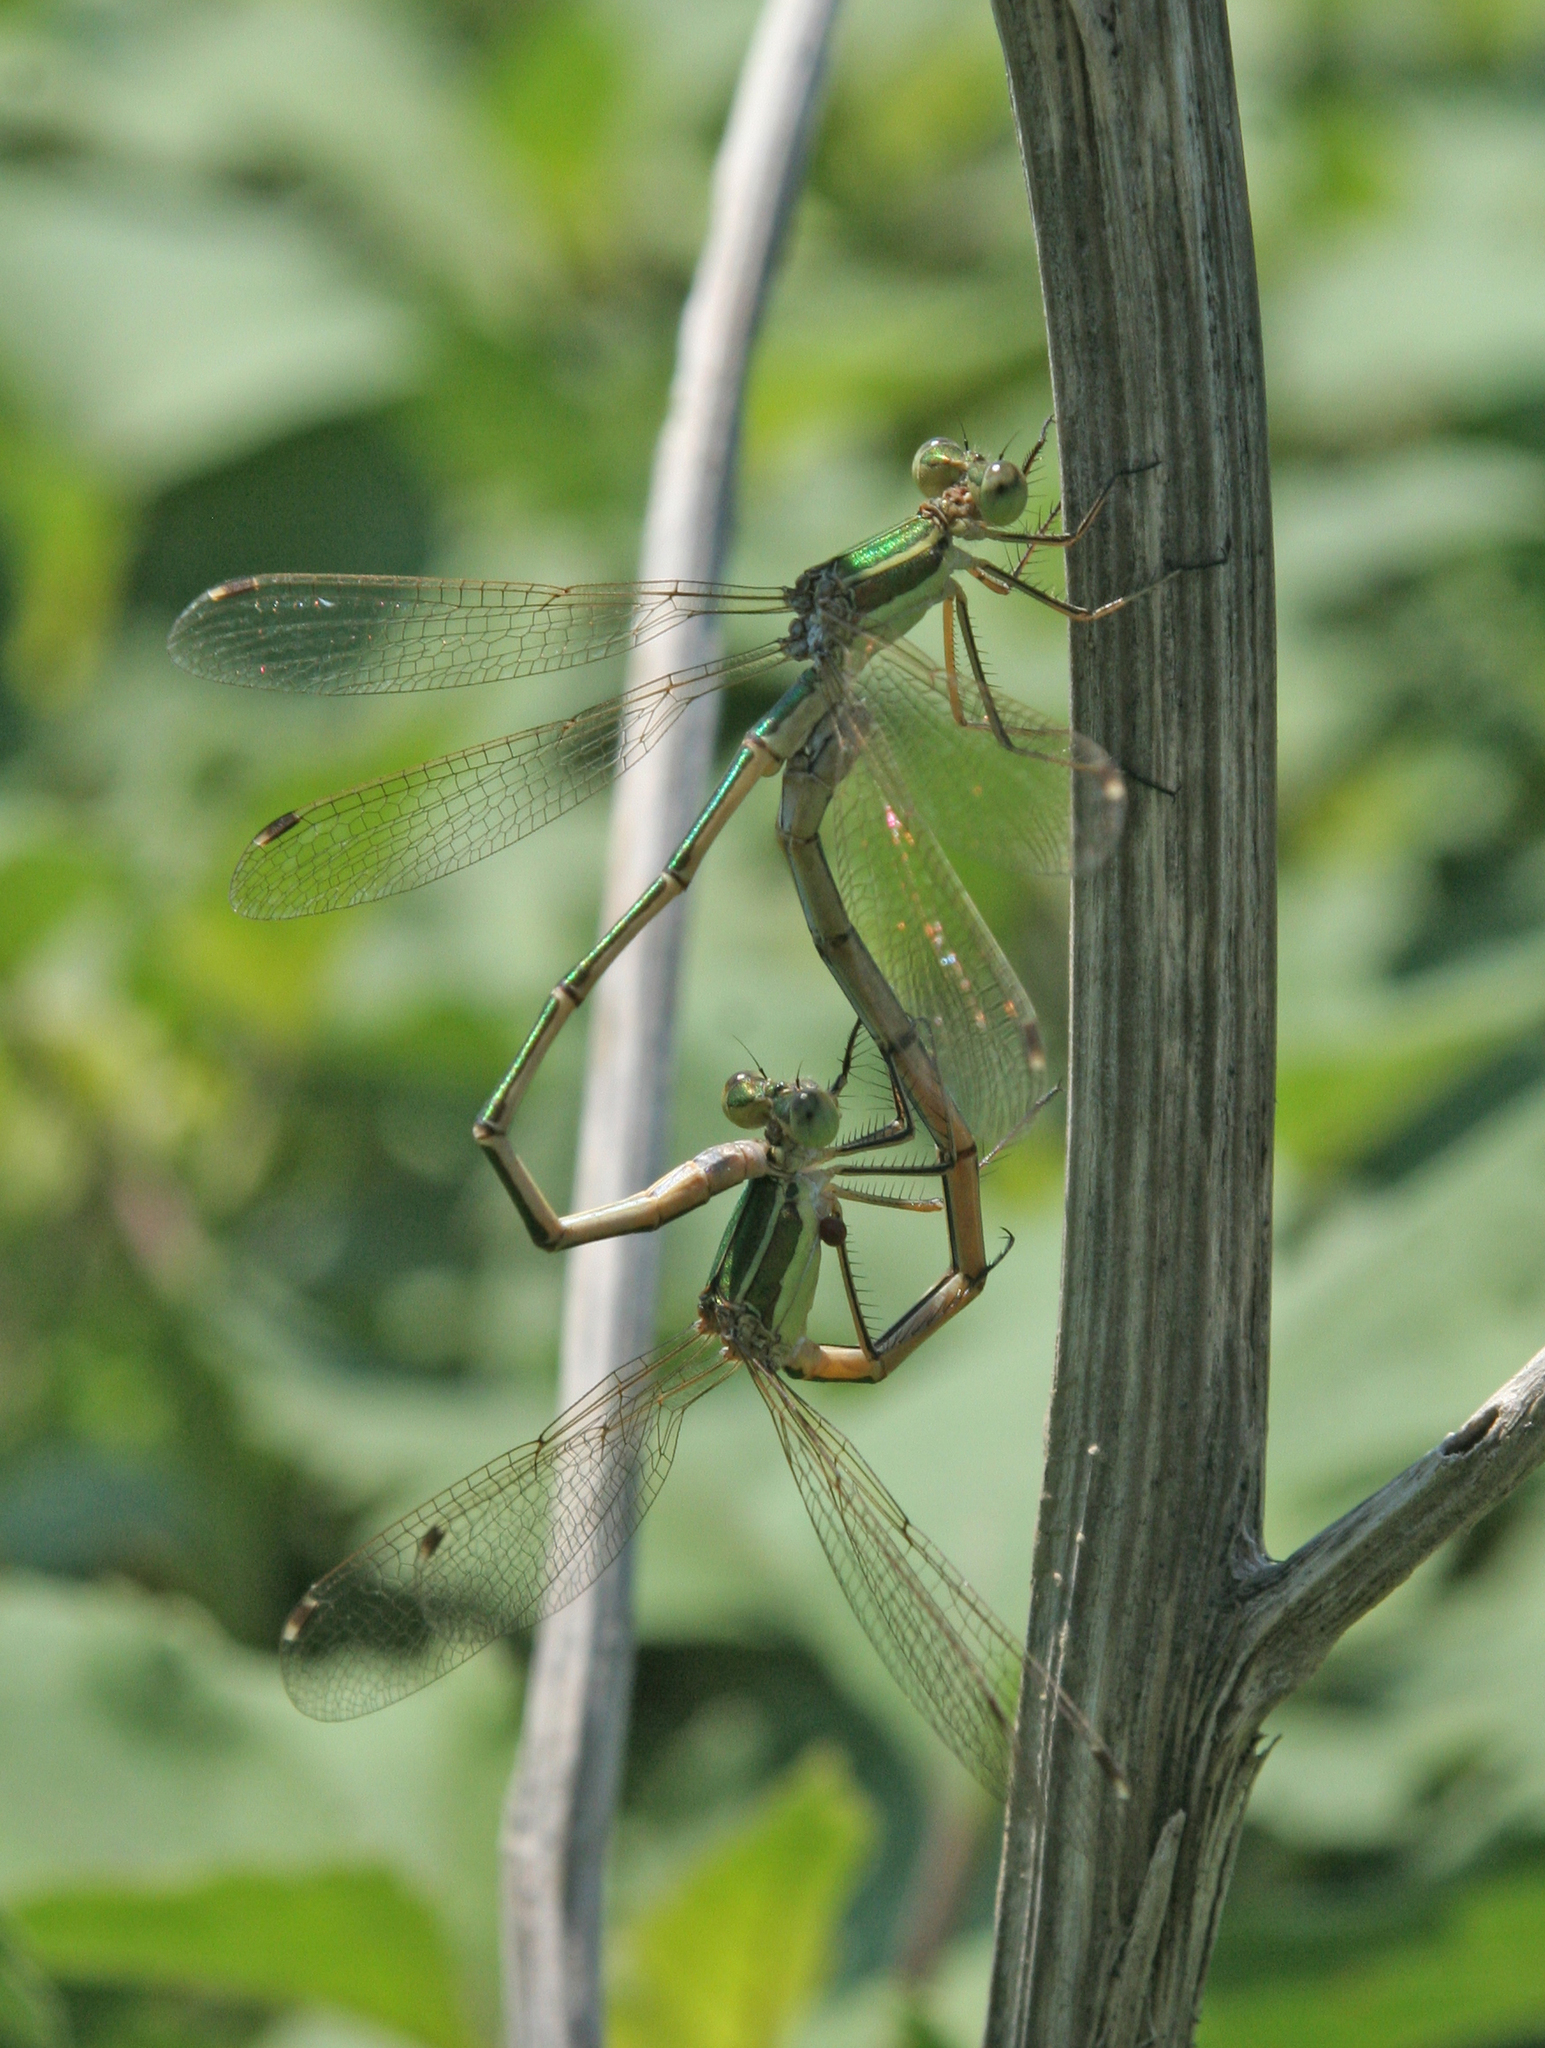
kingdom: Animalia
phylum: Arthropoda
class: Insecta
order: Odonata
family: Lestidae
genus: Lestes
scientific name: Lestes barbarus
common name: Migrant spreadwing
